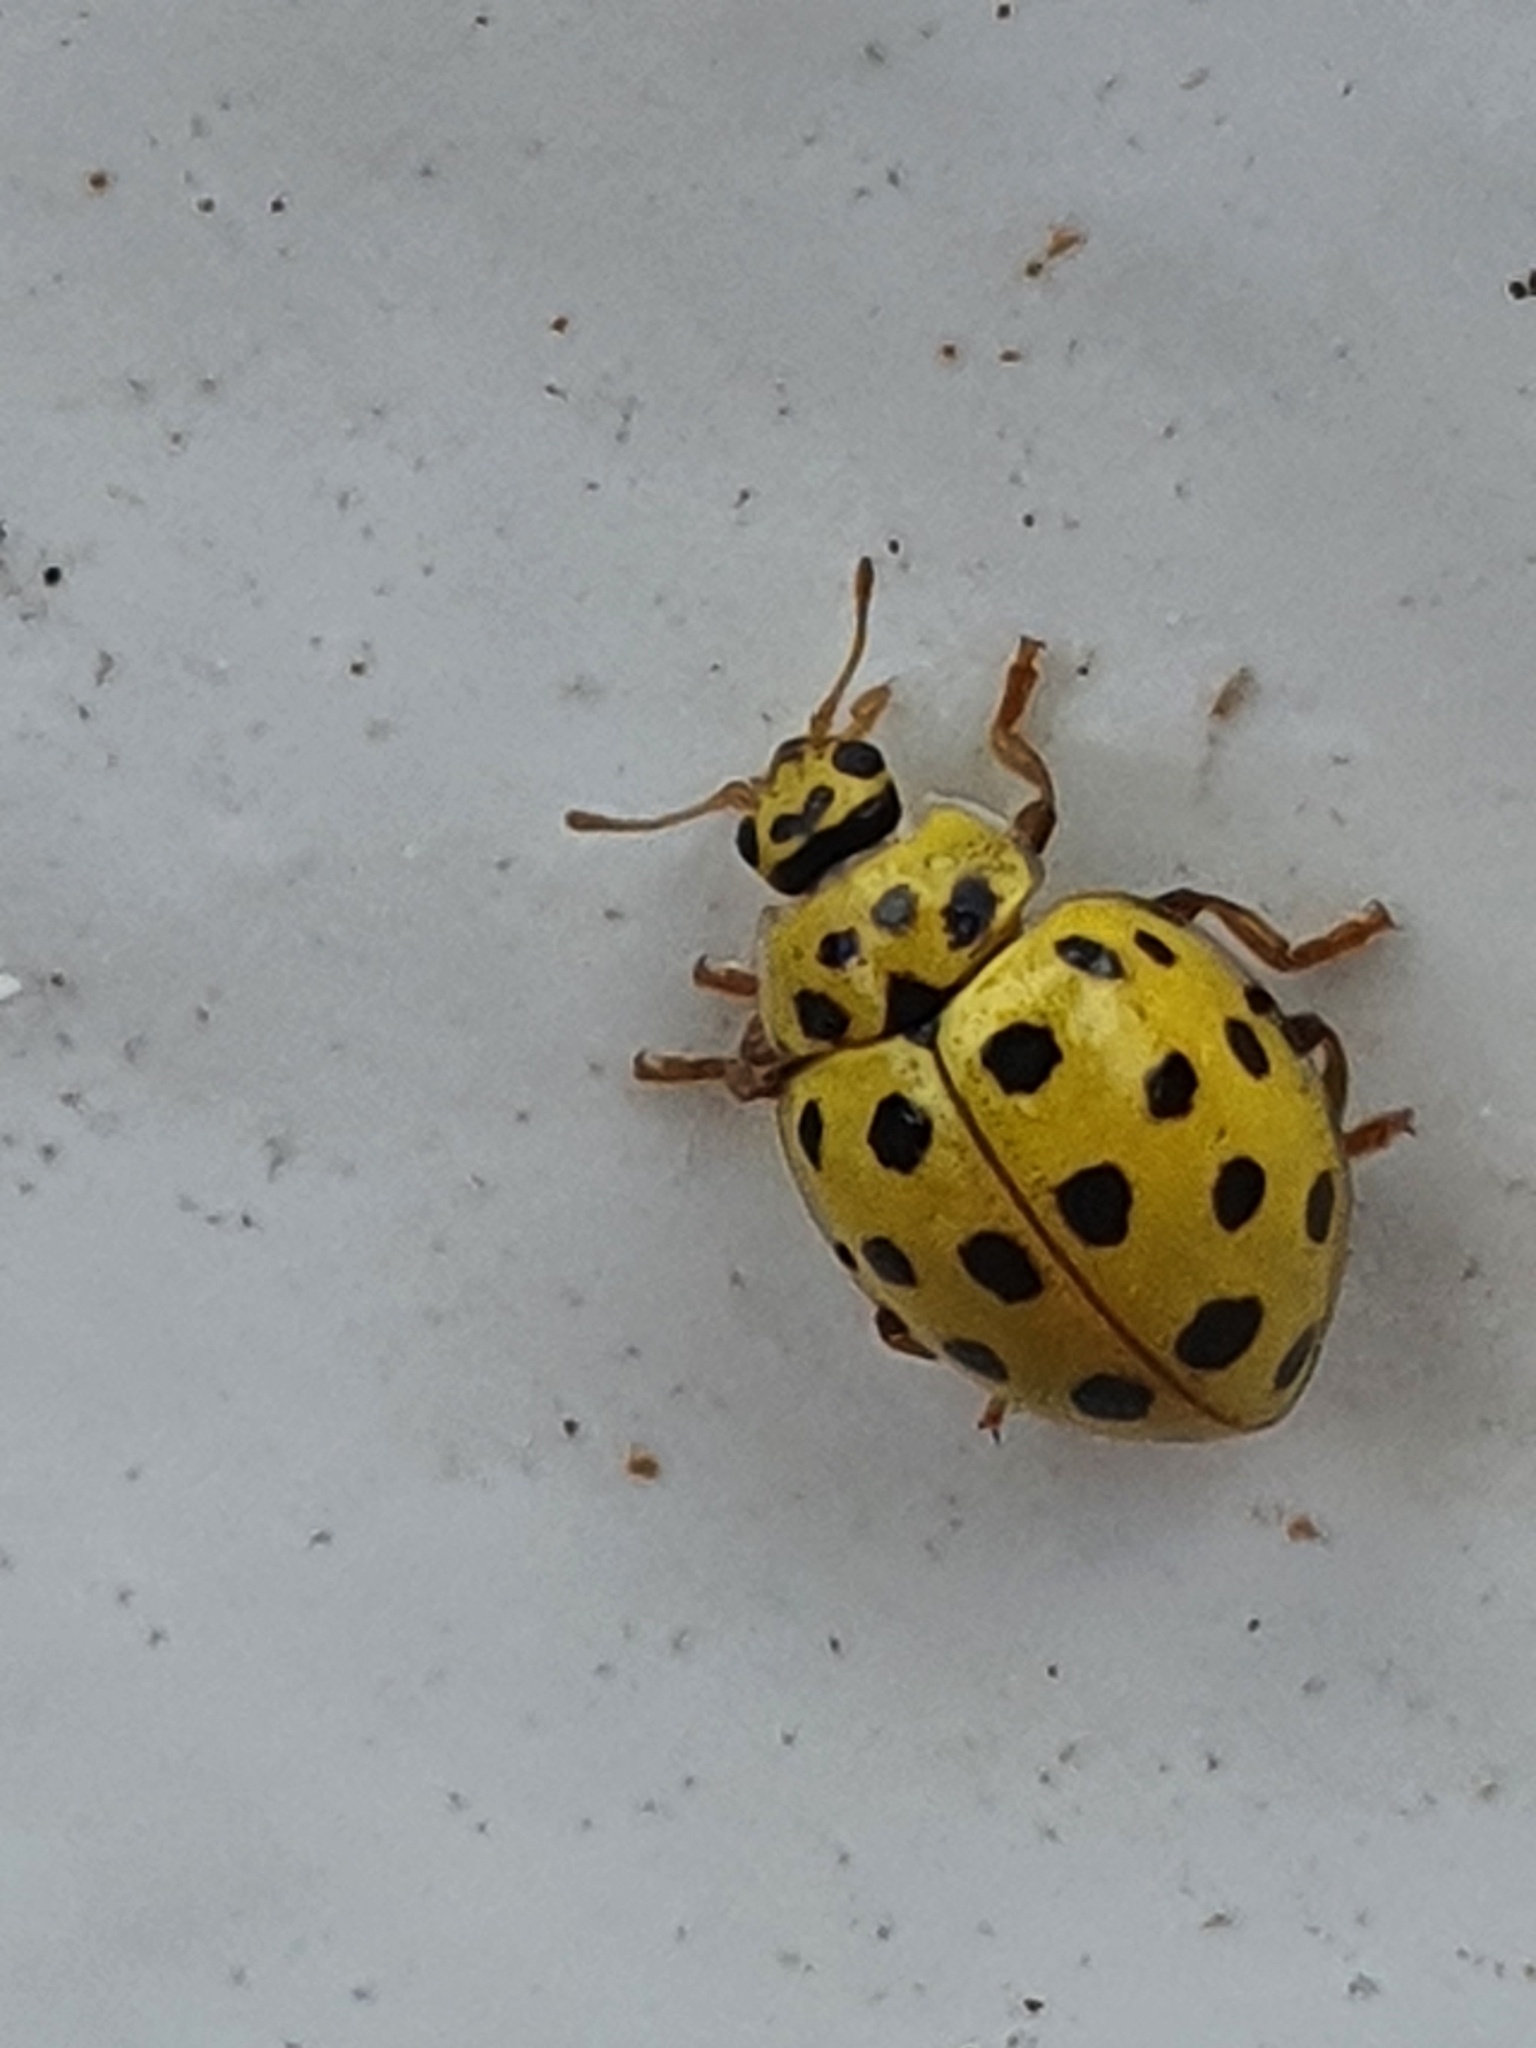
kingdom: Animalia
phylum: Arthropoda
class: Insecta
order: Coleoptera
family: Coccinellidae
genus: Psyllobora
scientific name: Psyllobora vigintiduopunctata
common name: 22-spot ladybird
